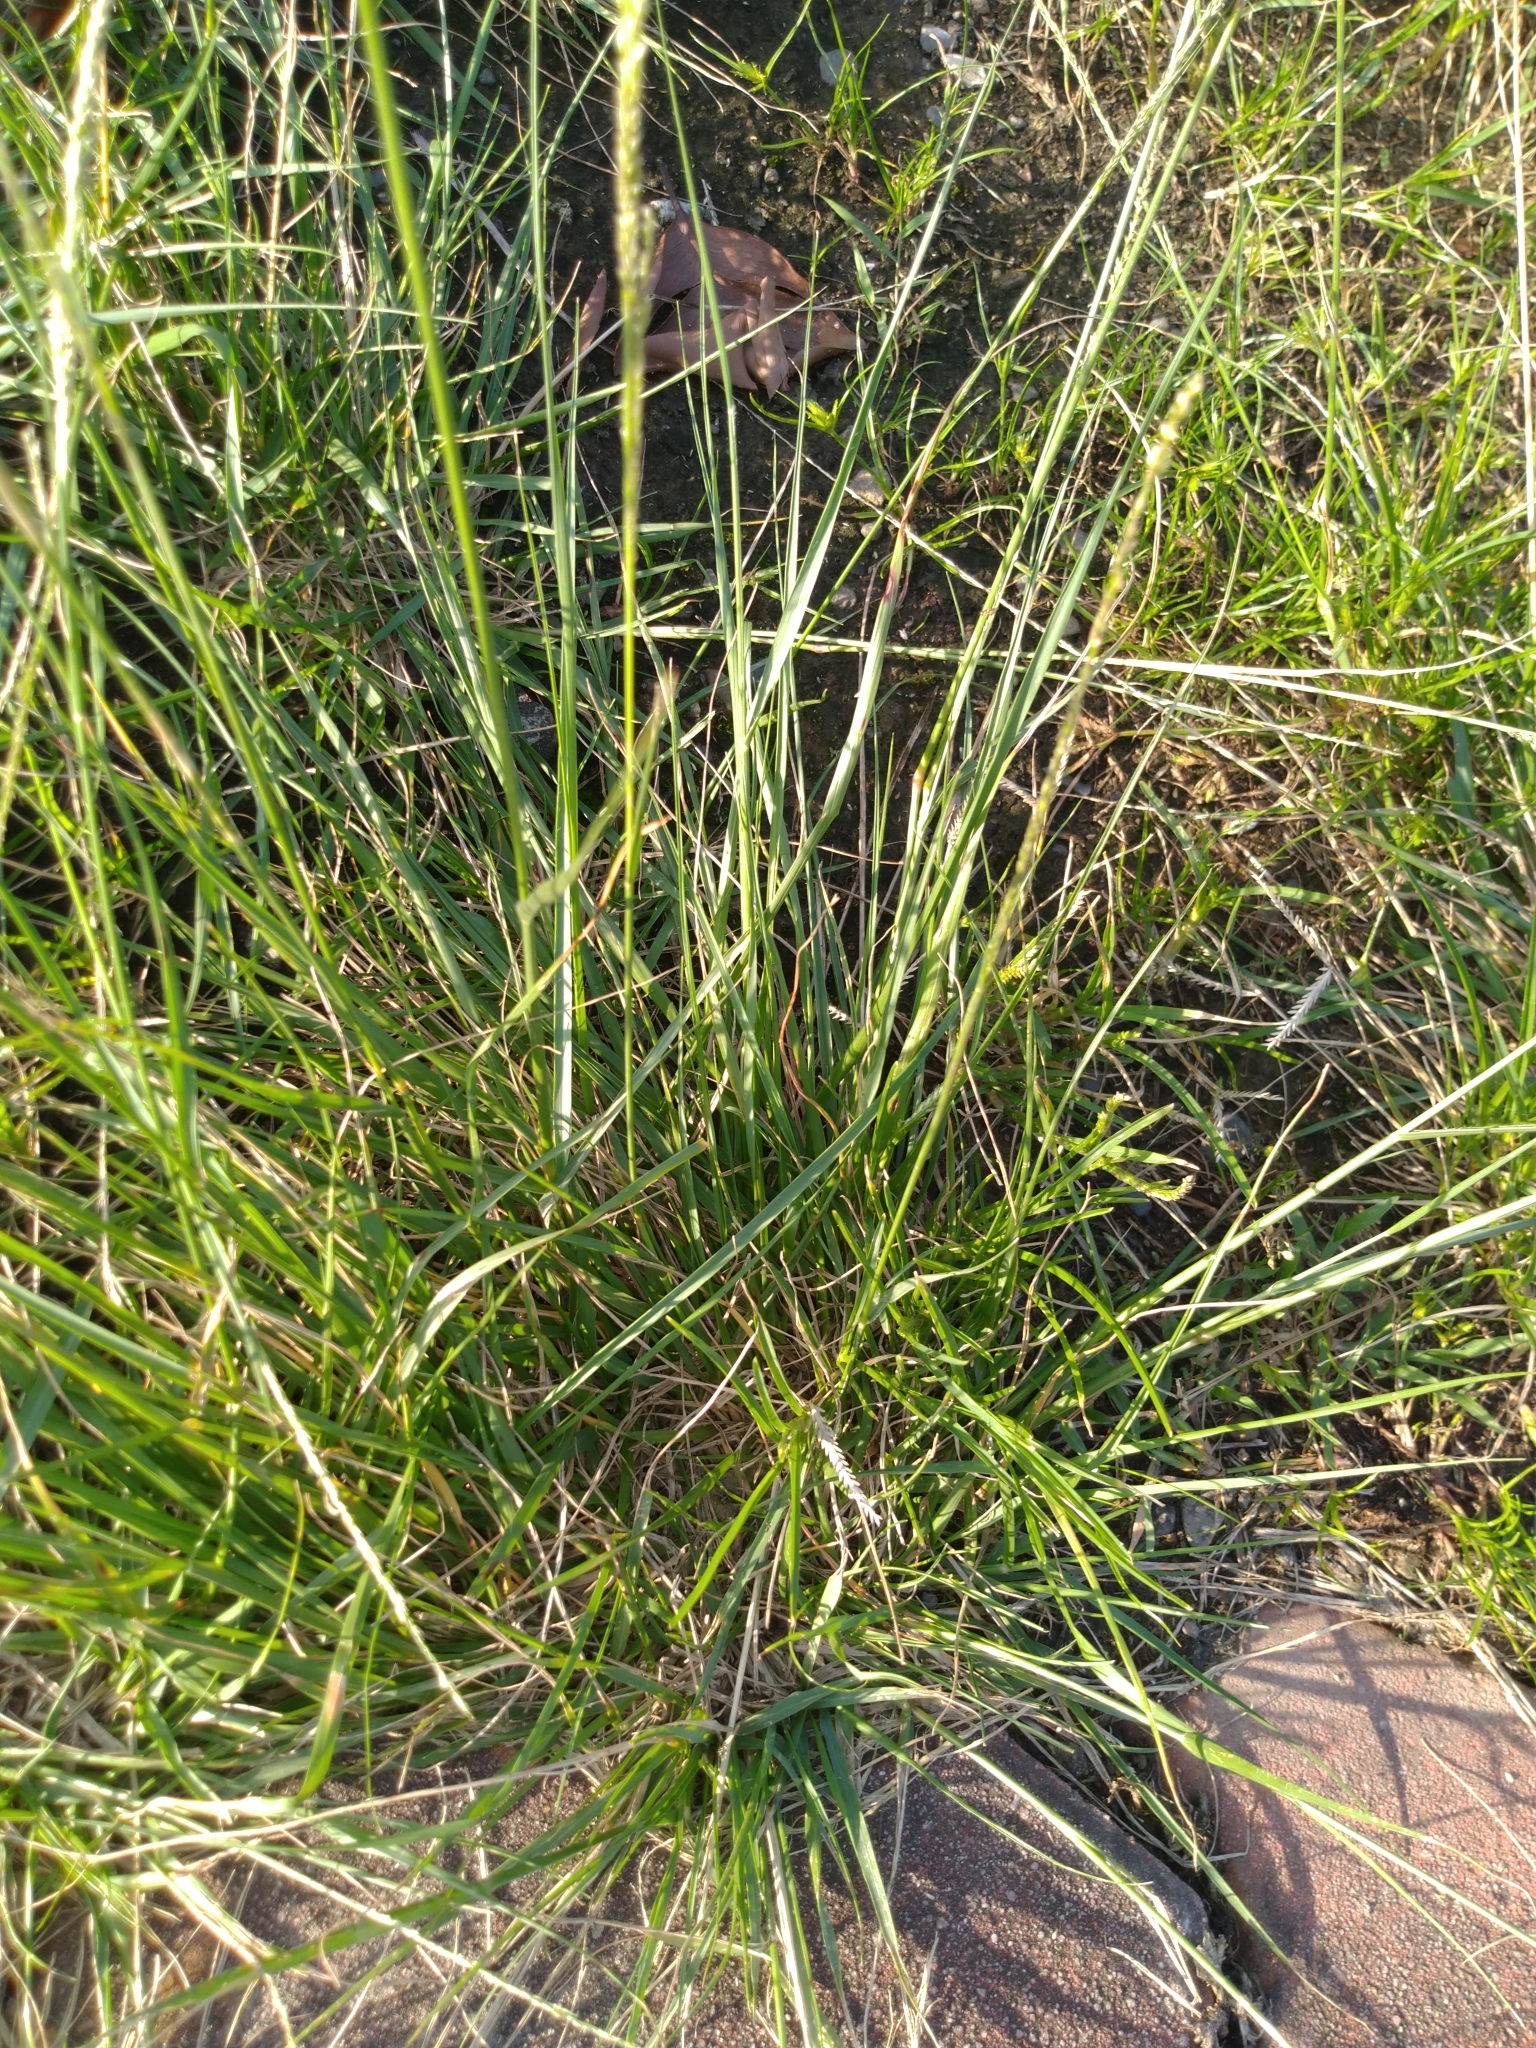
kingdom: Plantae
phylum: Tracheophyta
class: Liliopsida
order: Poales
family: Poaceae
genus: Sporobolus
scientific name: Sporobolus indicus
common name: Smut grass
